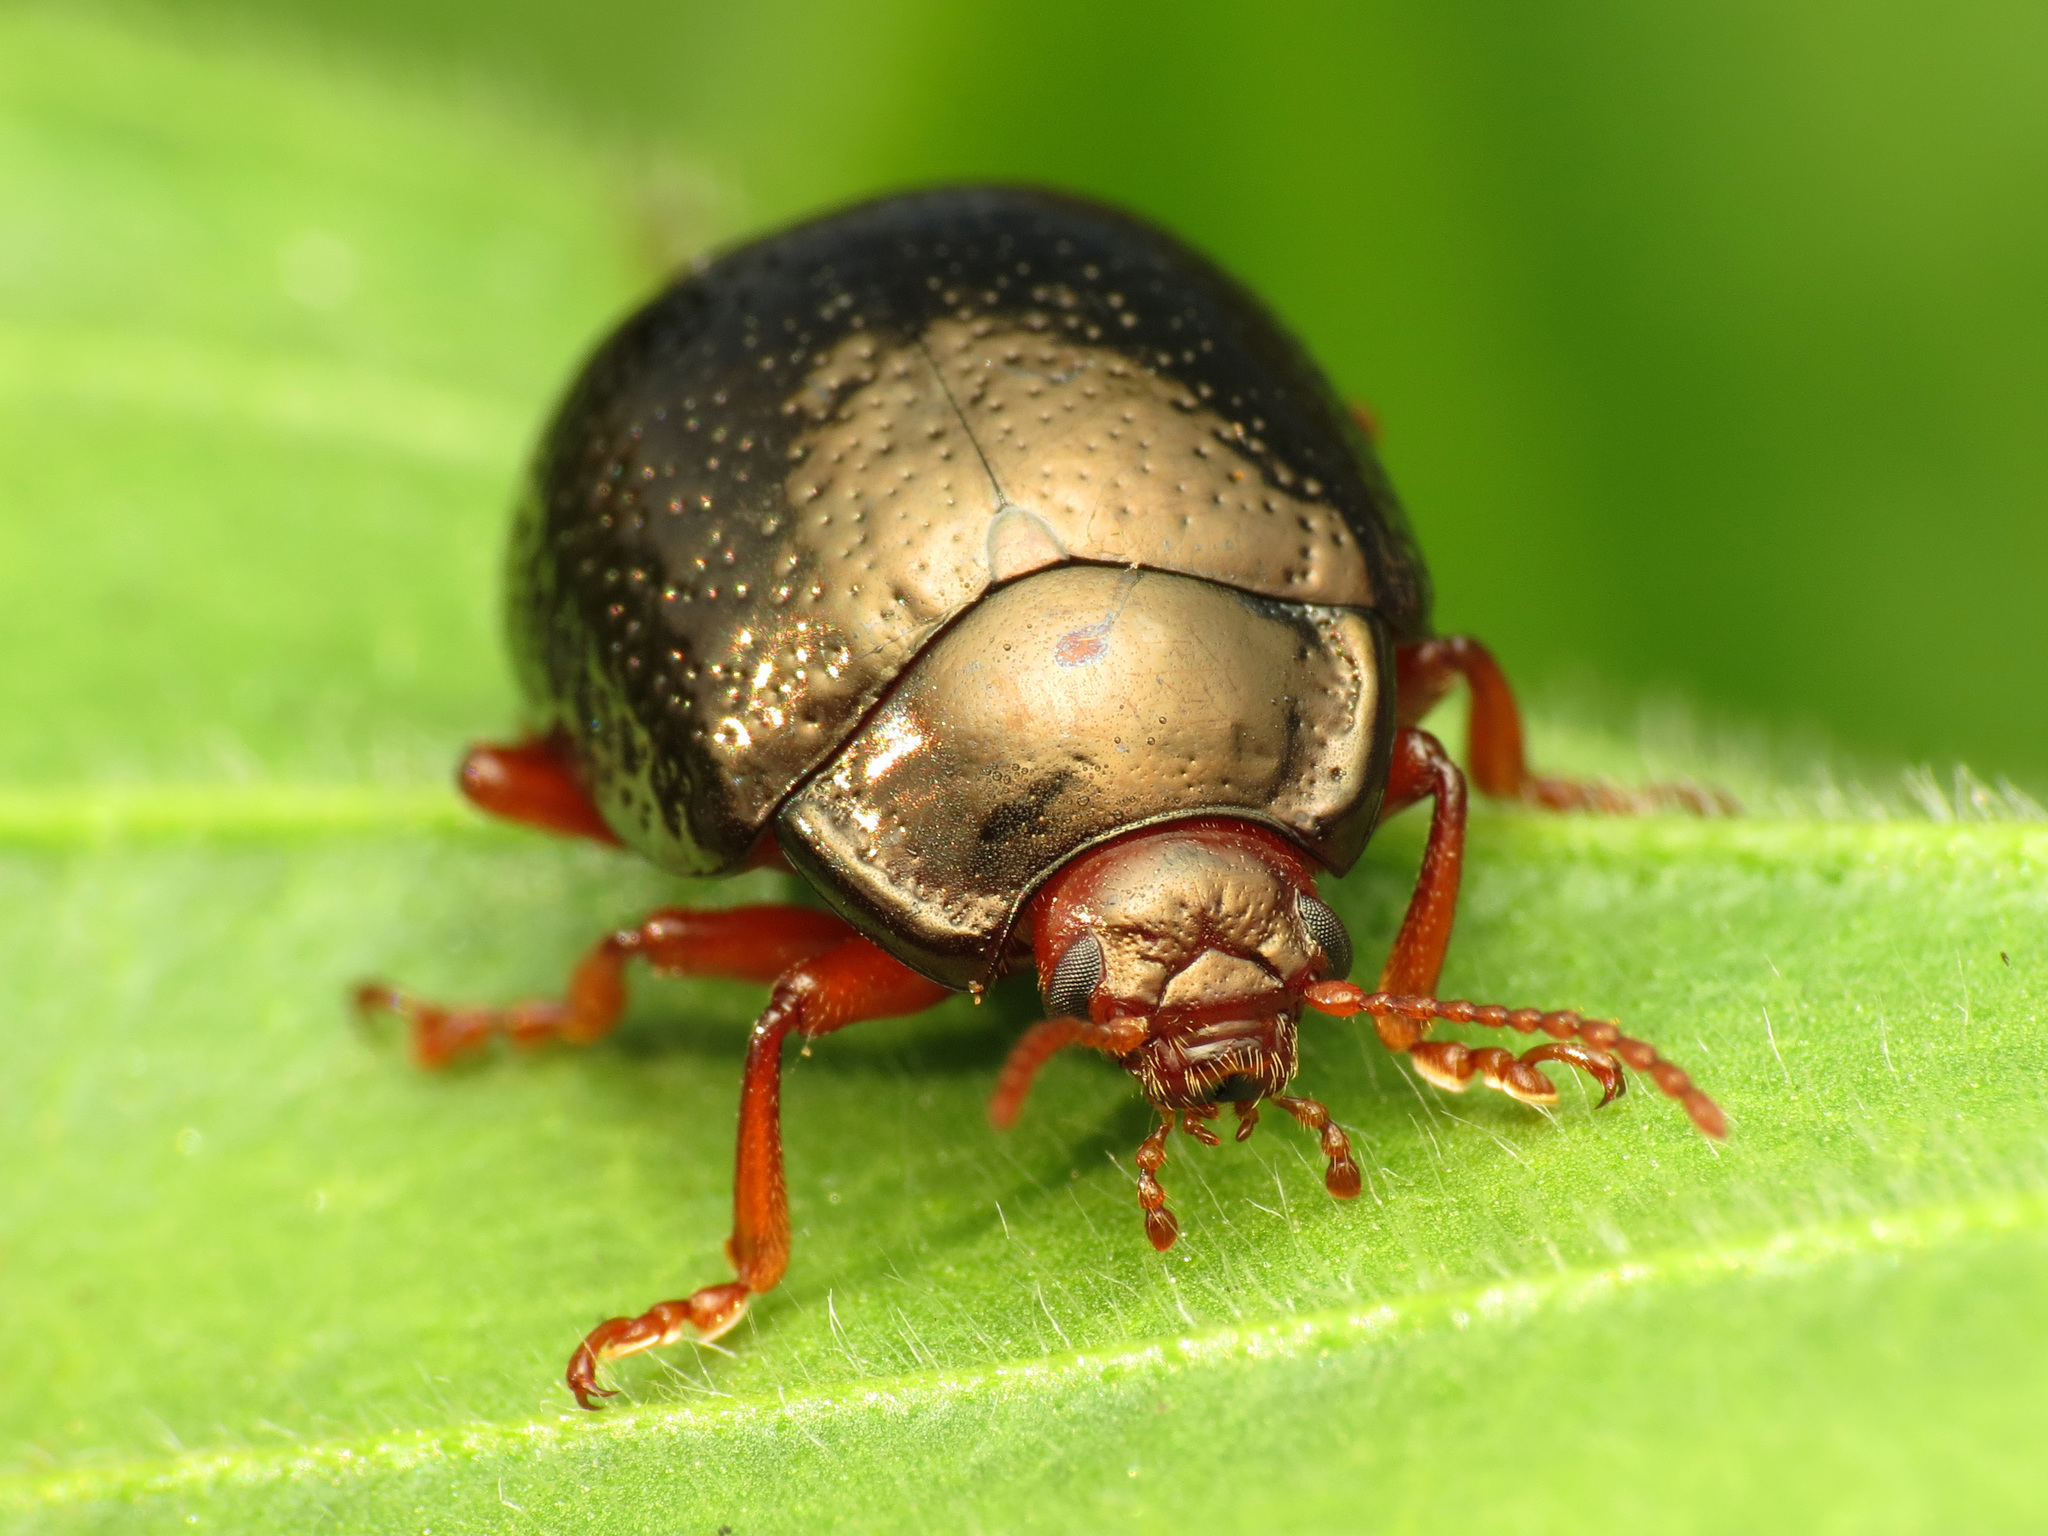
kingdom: Animalia
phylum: Arthropoda
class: Insecta
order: Coleoptera
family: Chrysomelidae
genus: Chrysolina
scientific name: Chrysolina bankii
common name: Leaf beetle
